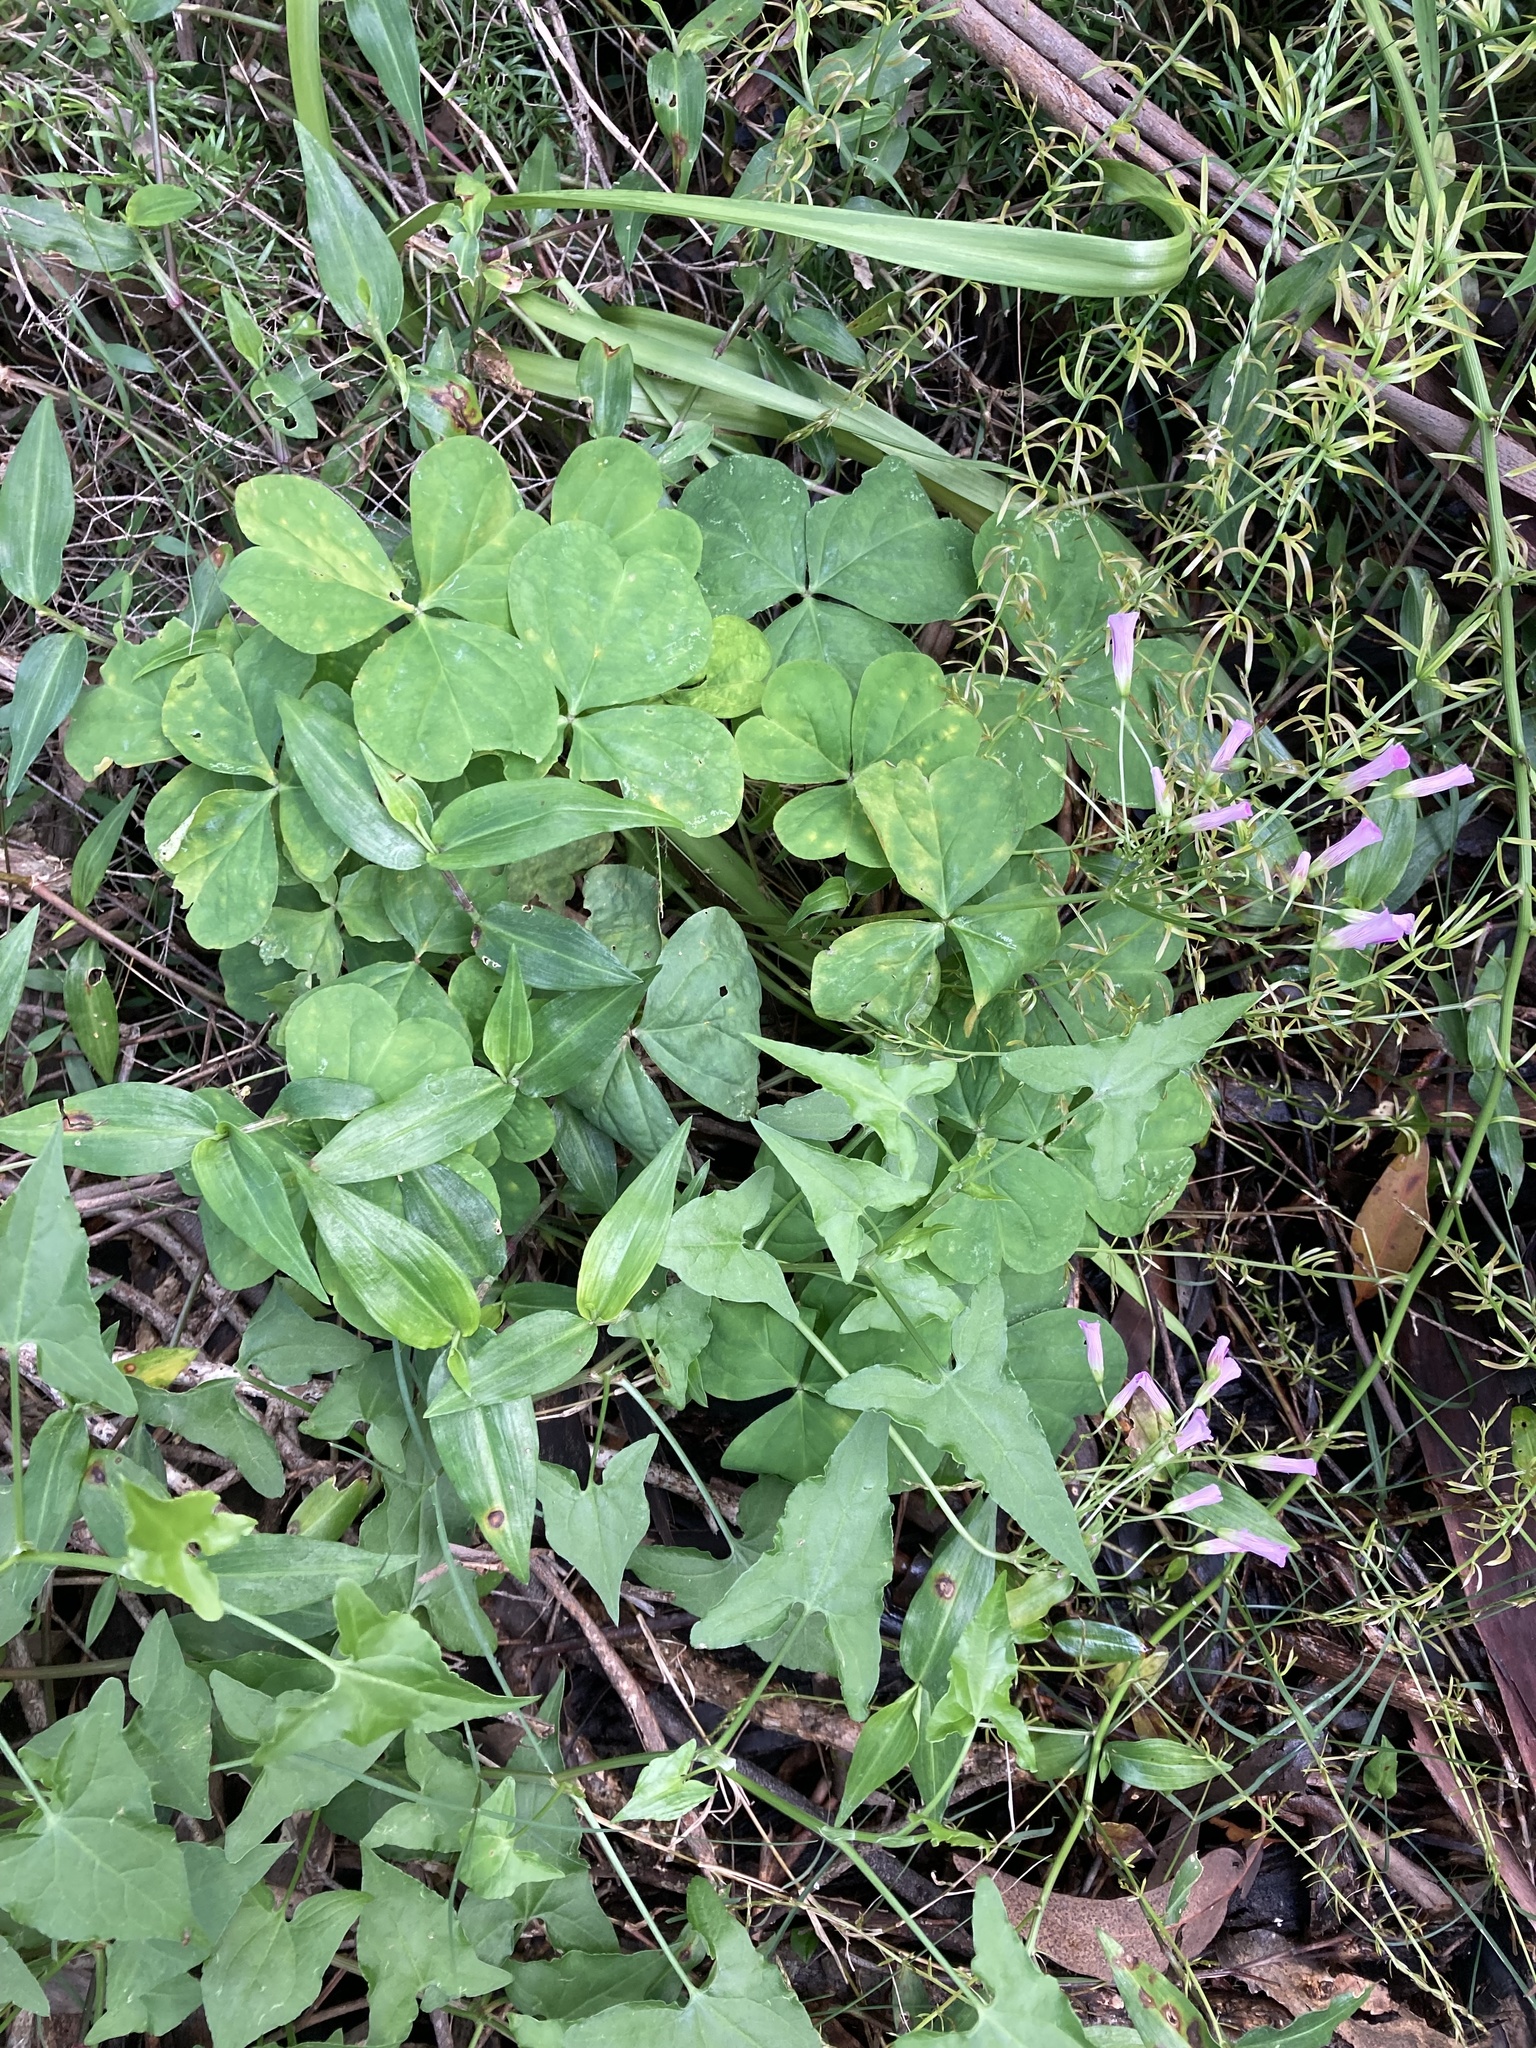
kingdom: Plantae
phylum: Tracheophyta
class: Magnoliopsida
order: Oxalidales
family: Oxalidaceae
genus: Oxalis
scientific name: Oxalis debilis
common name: Large-flowered pink-sorrel
